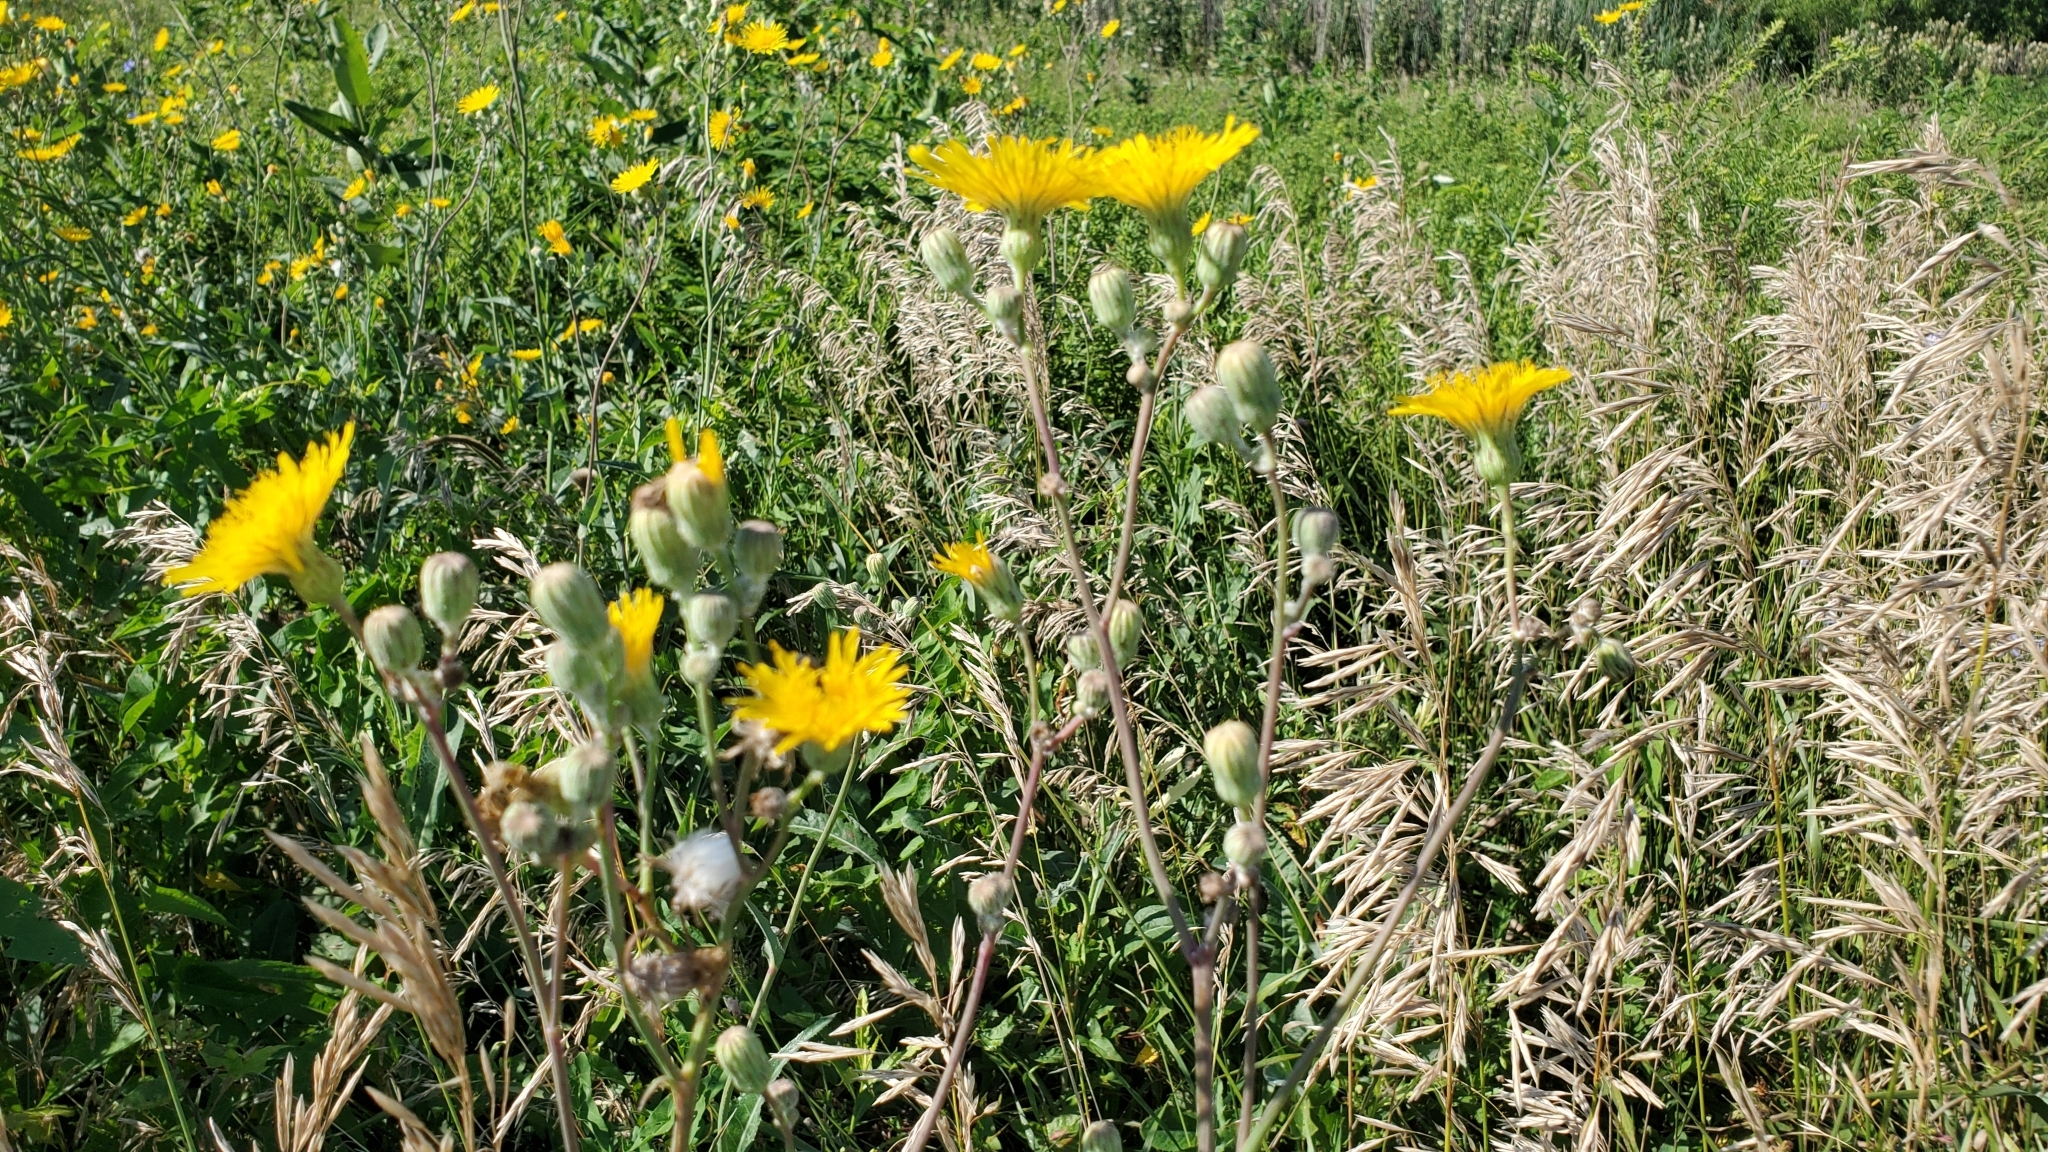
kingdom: Plantae
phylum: Tracheophyta
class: Magnoliopsida
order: Asterales
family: Asteraceae
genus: Sonchus
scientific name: Sonchus arvensis
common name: Perennial sow-thistle
